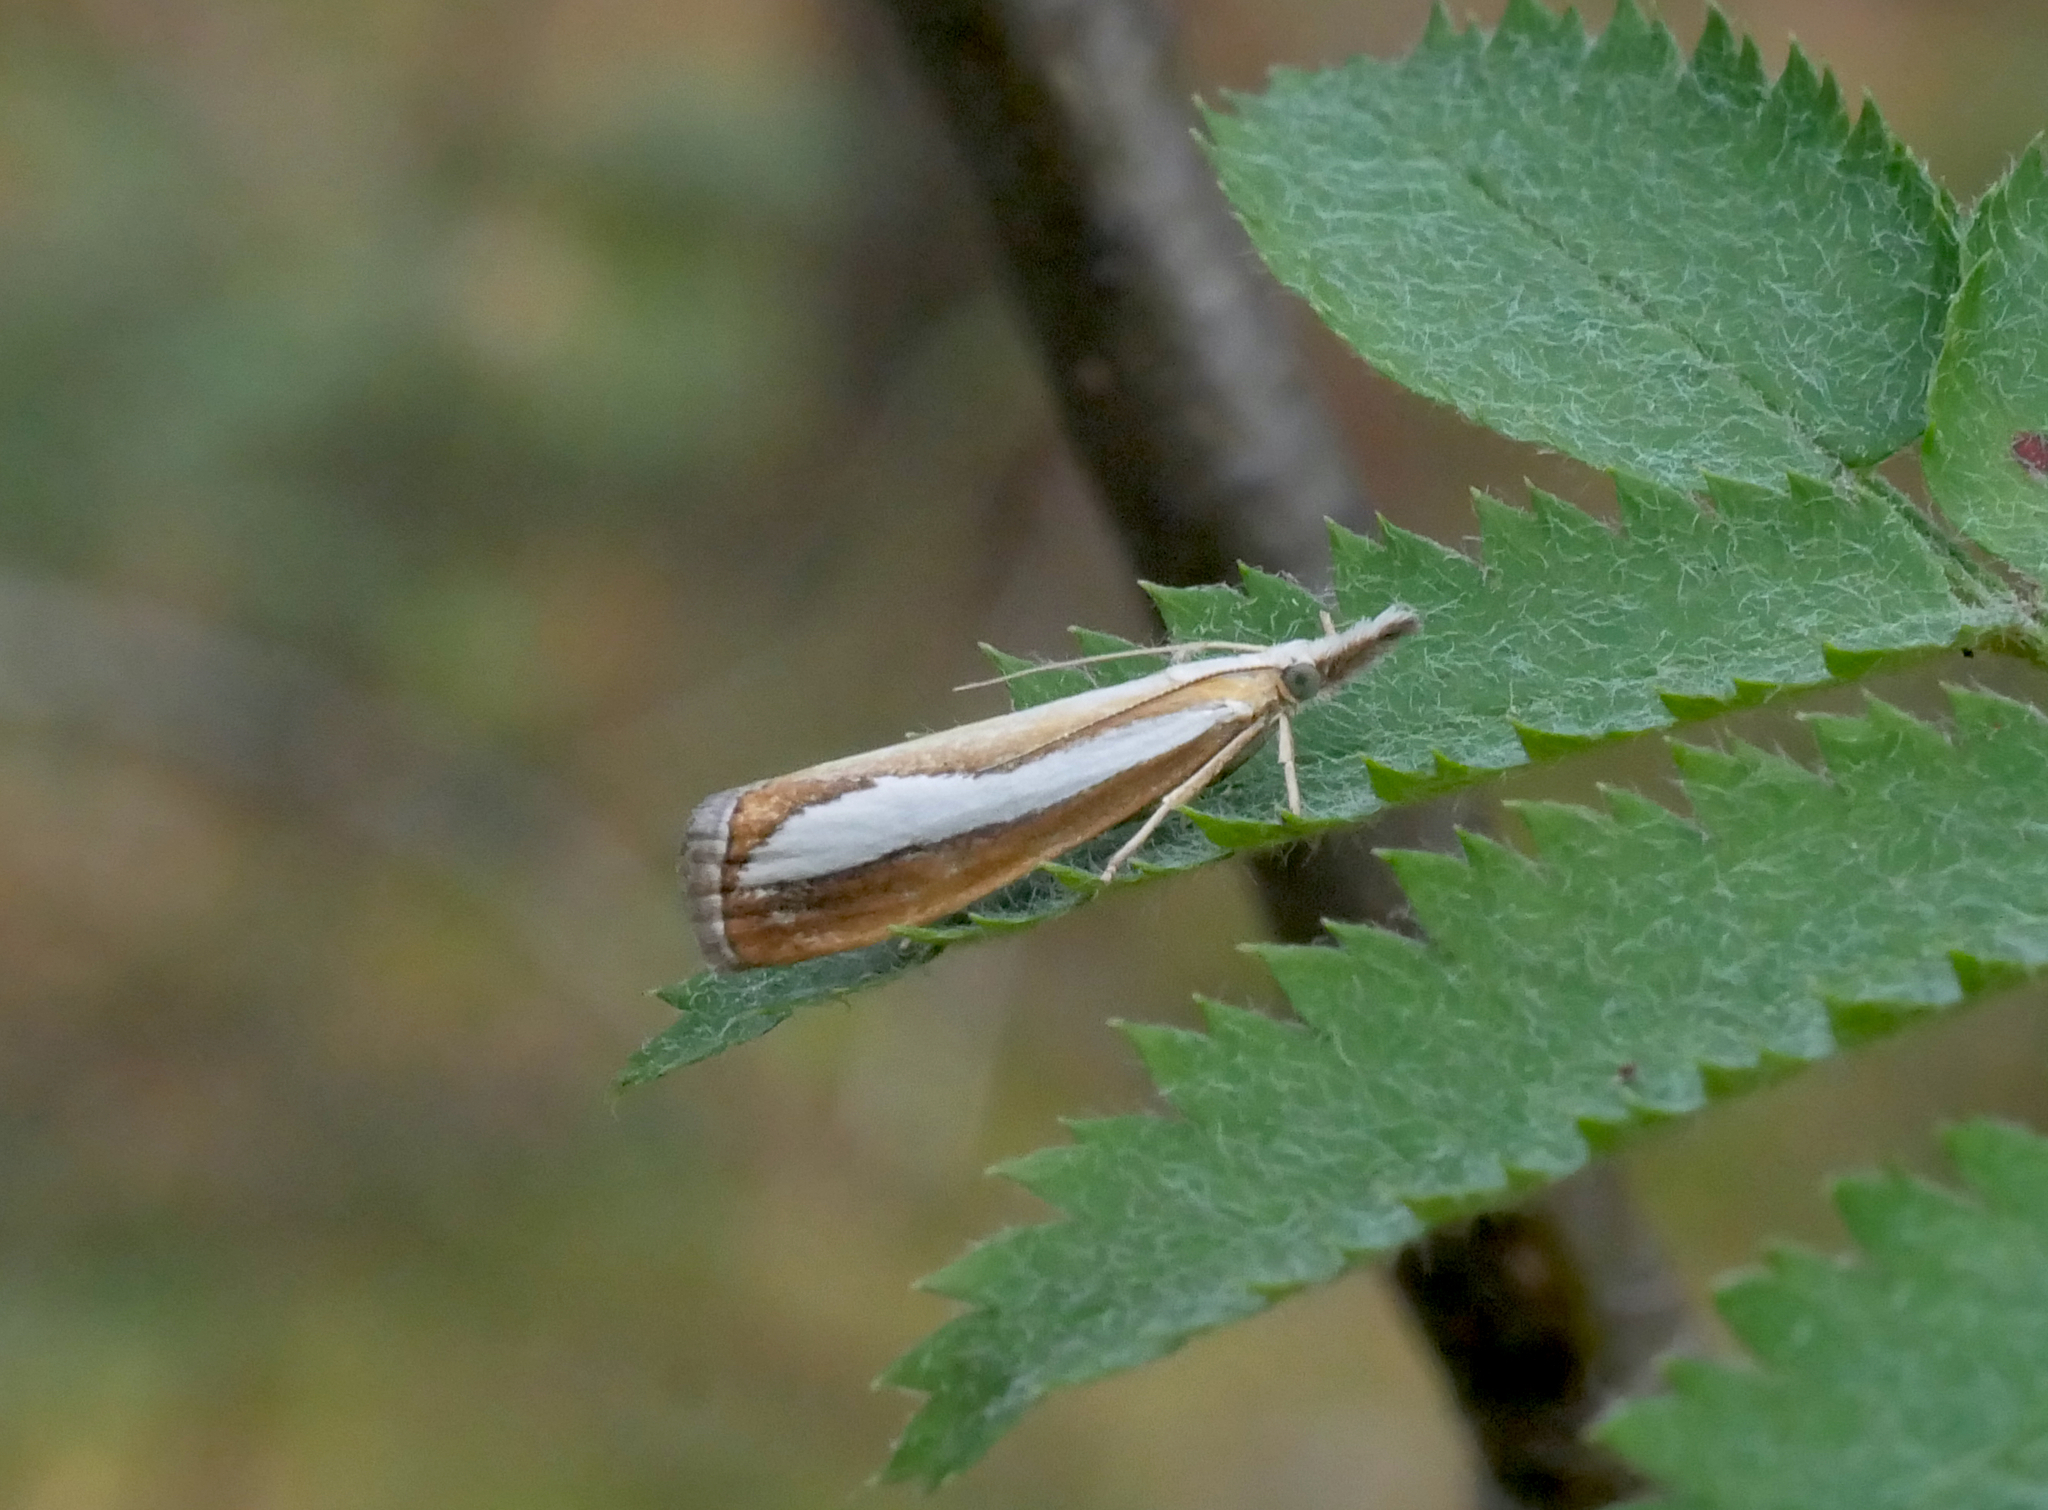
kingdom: Animalia
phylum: Arthropoda
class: Insecta
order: Lepidoptera
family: Crambidae
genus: Catoptria
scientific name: Catoptria margaritellus
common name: Pearl-band grass veneer
